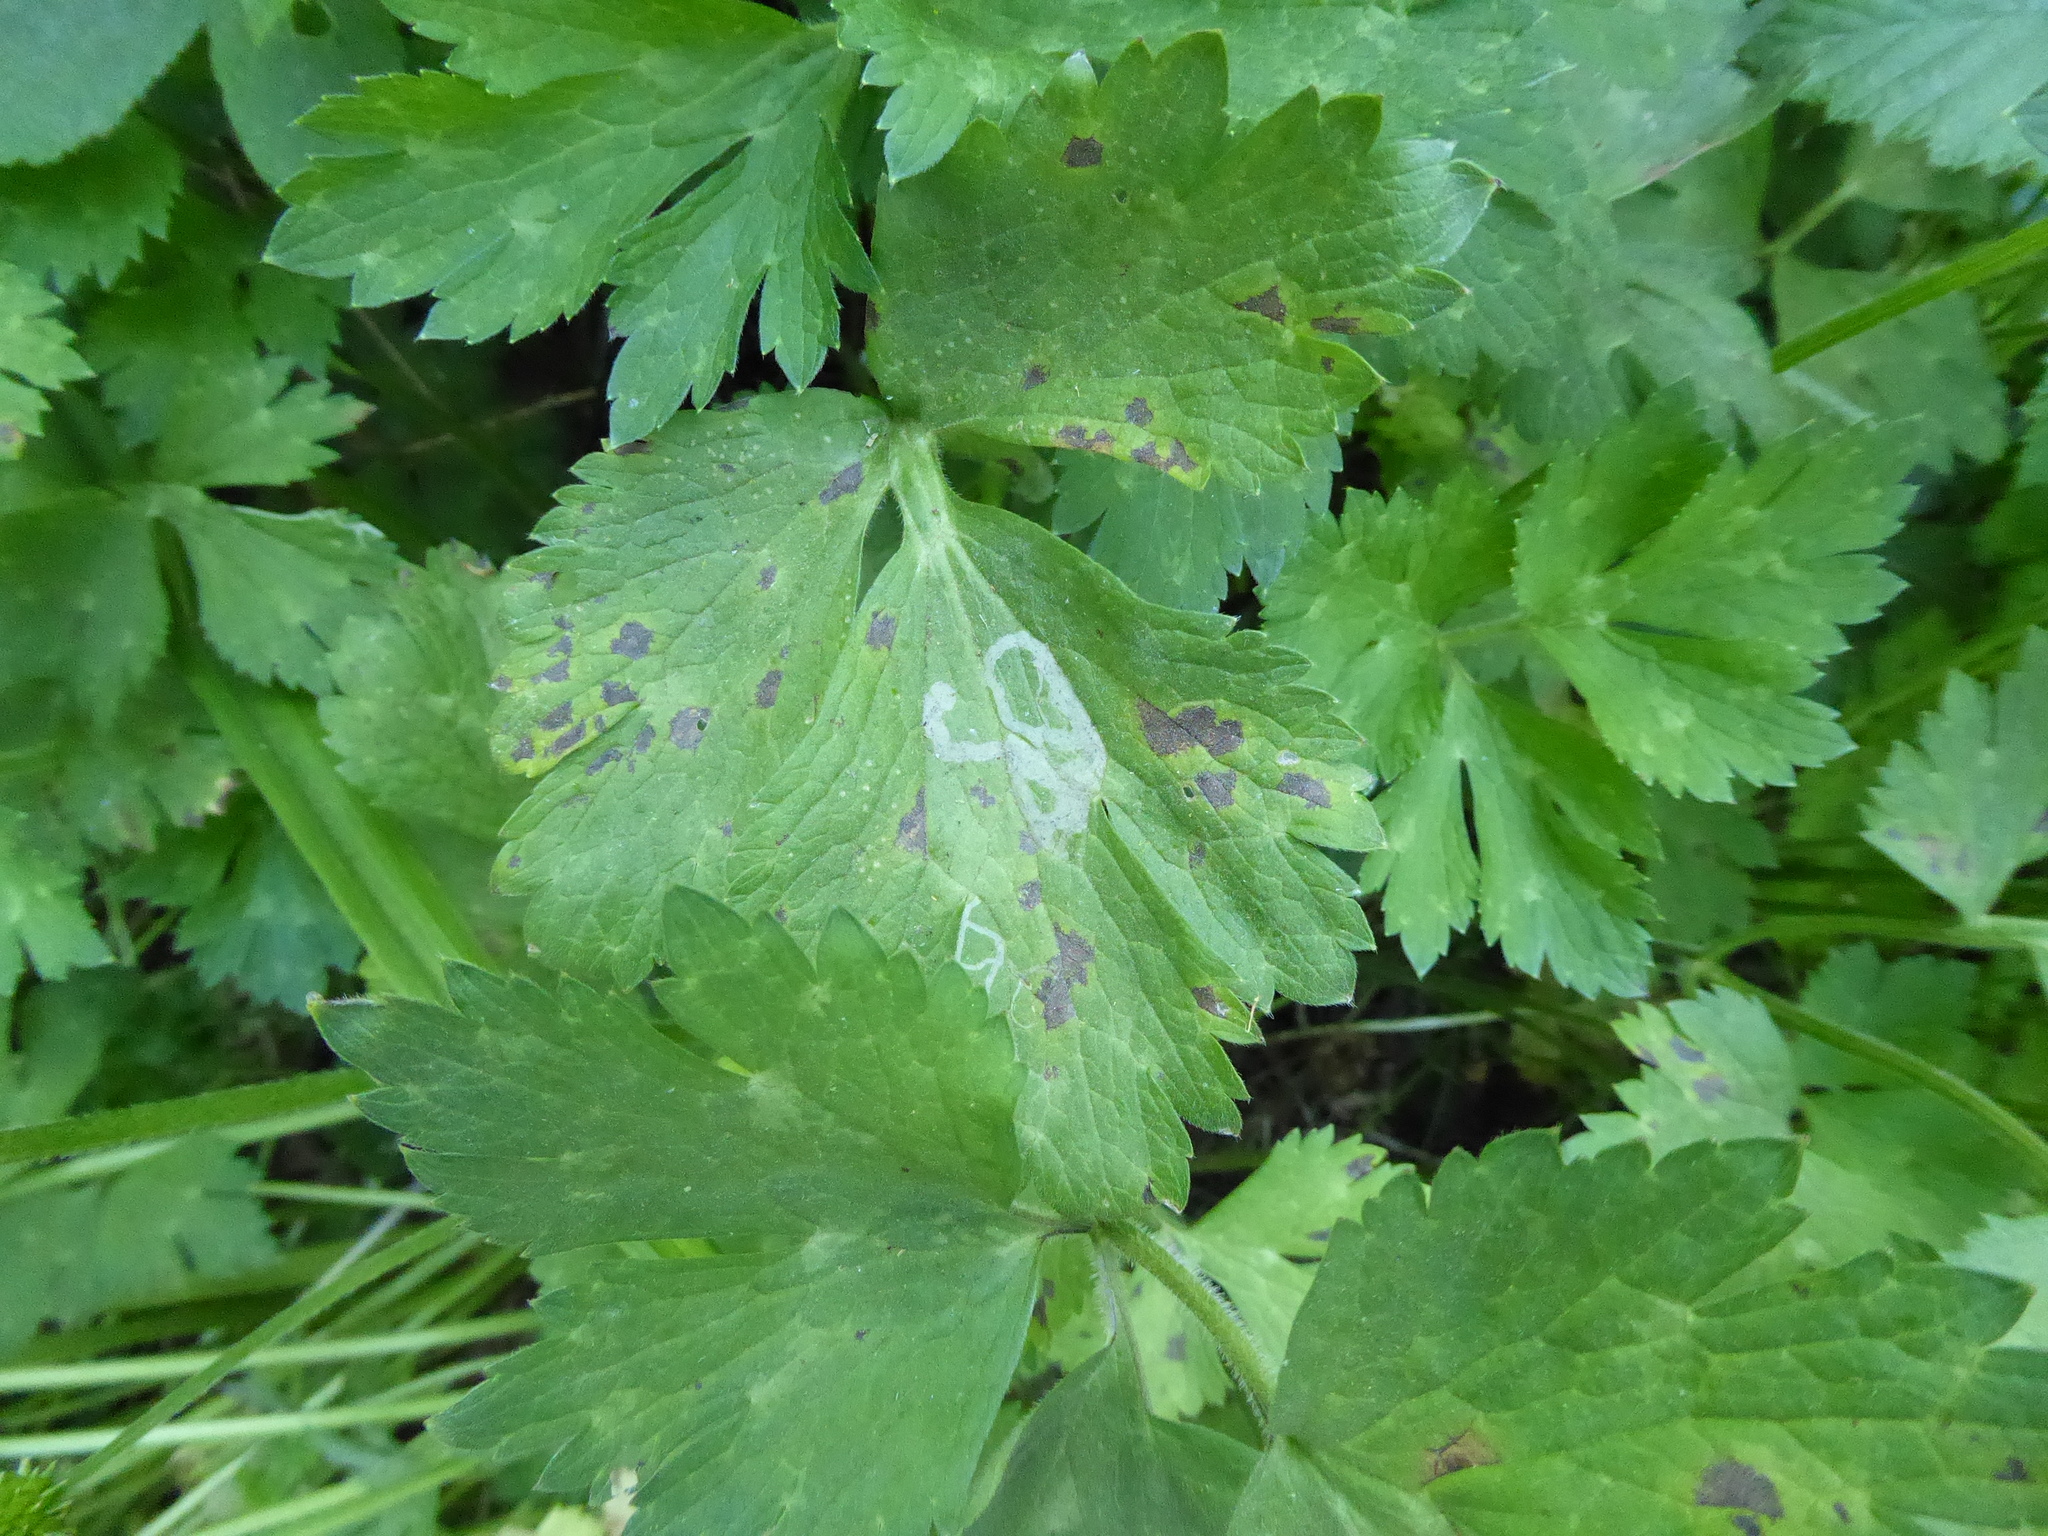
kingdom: Animalia
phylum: Arthropoda
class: Insecta
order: Diptera
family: Agromyzidae
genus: Phytomyza
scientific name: Phytomyza ranunculi
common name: Leaf-miner fly
